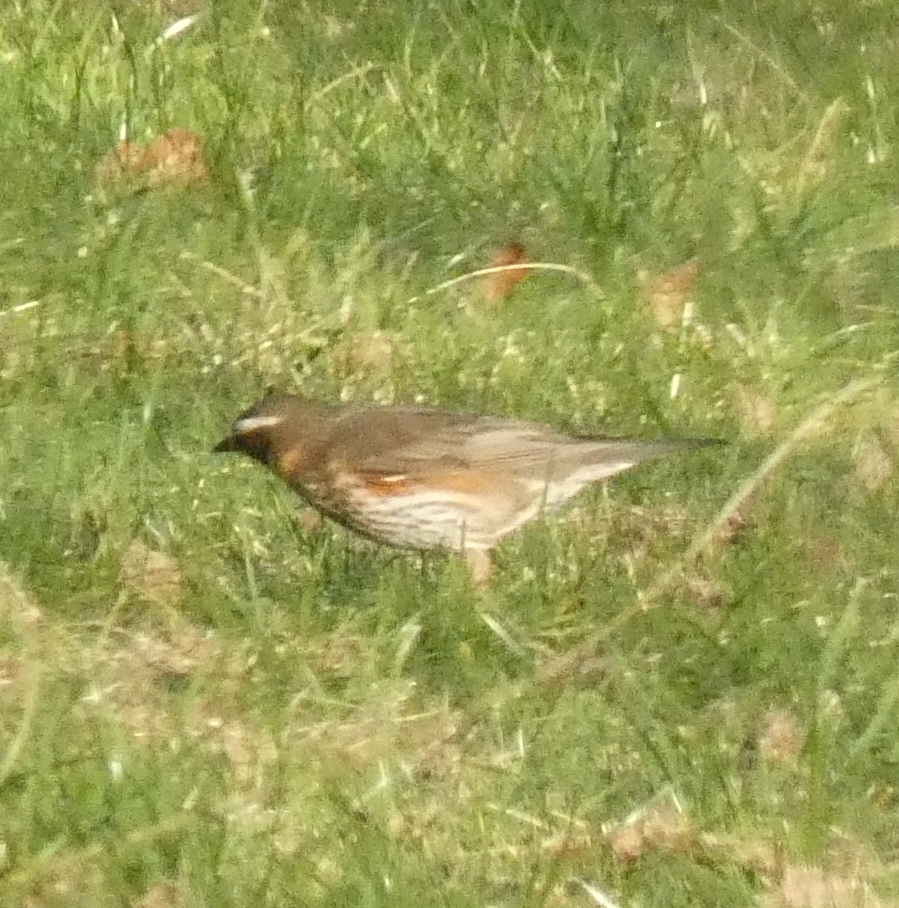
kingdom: Animalia
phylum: Chordata
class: Aves
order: Passeriformes
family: Turdidae
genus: Turdus
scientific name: Turdus iliacus
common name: Redwing
